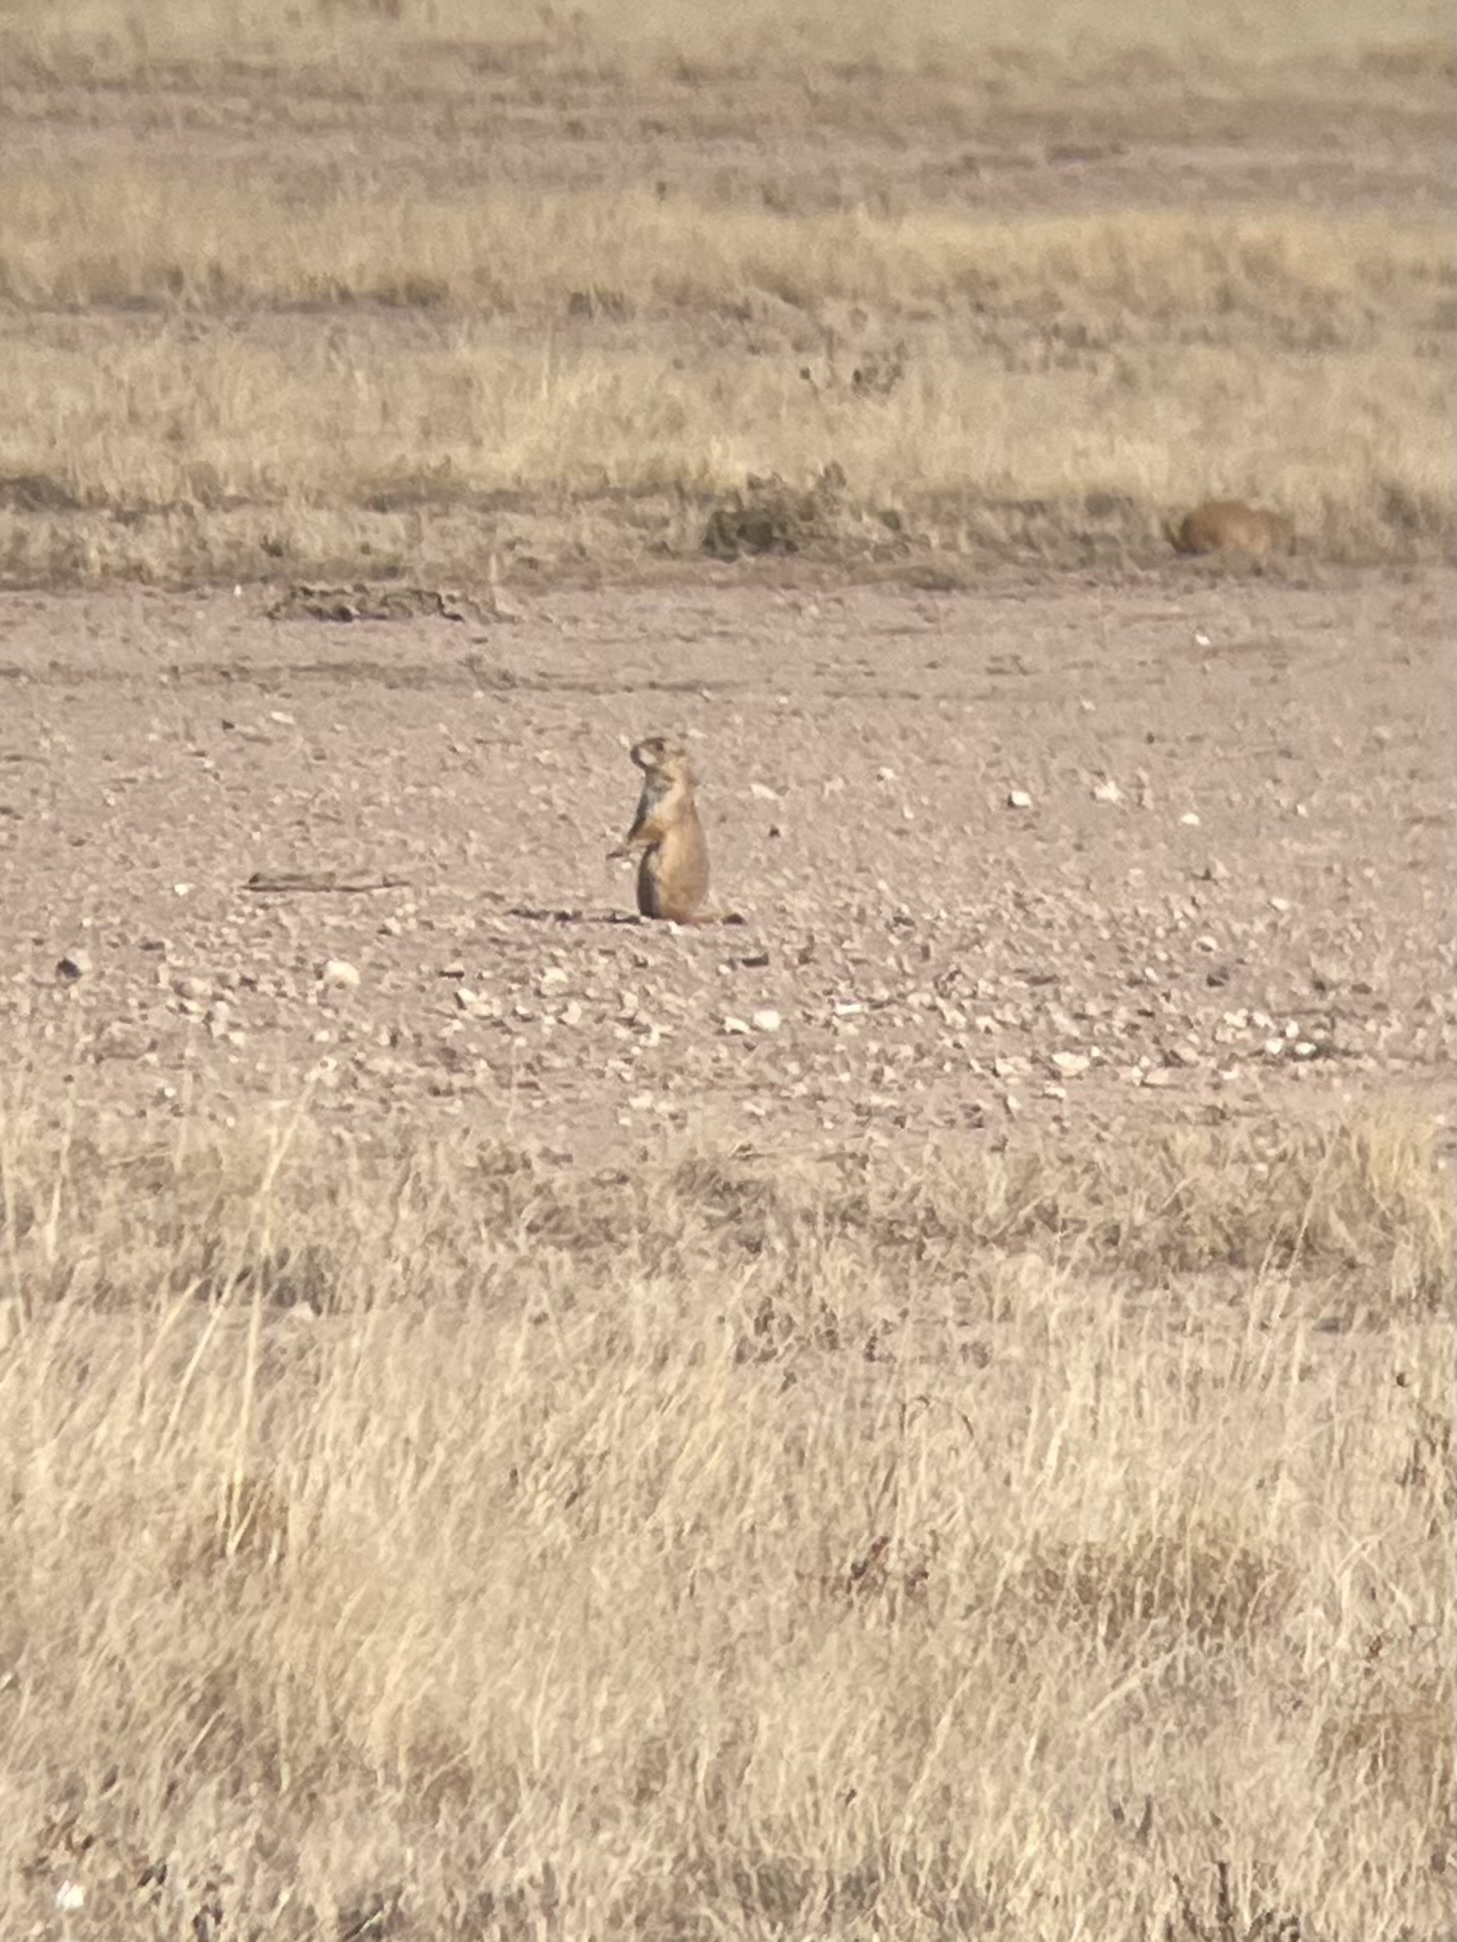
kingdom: Animalia
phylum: Chordata
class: Mammalia
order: Rodentia
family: Sciuridae
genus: Cynomys
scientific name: Cynomys ludovicianus
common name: Black-tailed prairie dog
